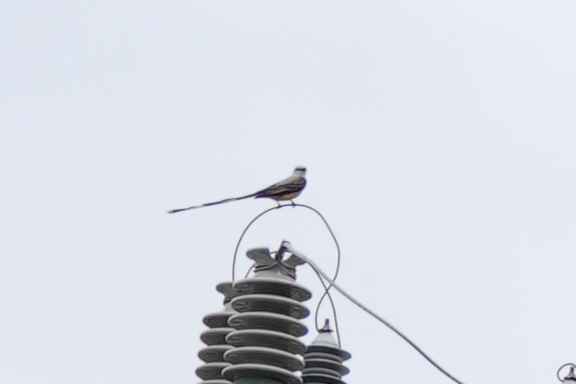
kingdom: Animalia
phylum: Chordata
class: Aves
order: Passeriformes
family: Tyrannidae
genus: Tyrannus
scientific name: Tyrannus forficatus
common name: Scissor-tailed flycatcher
